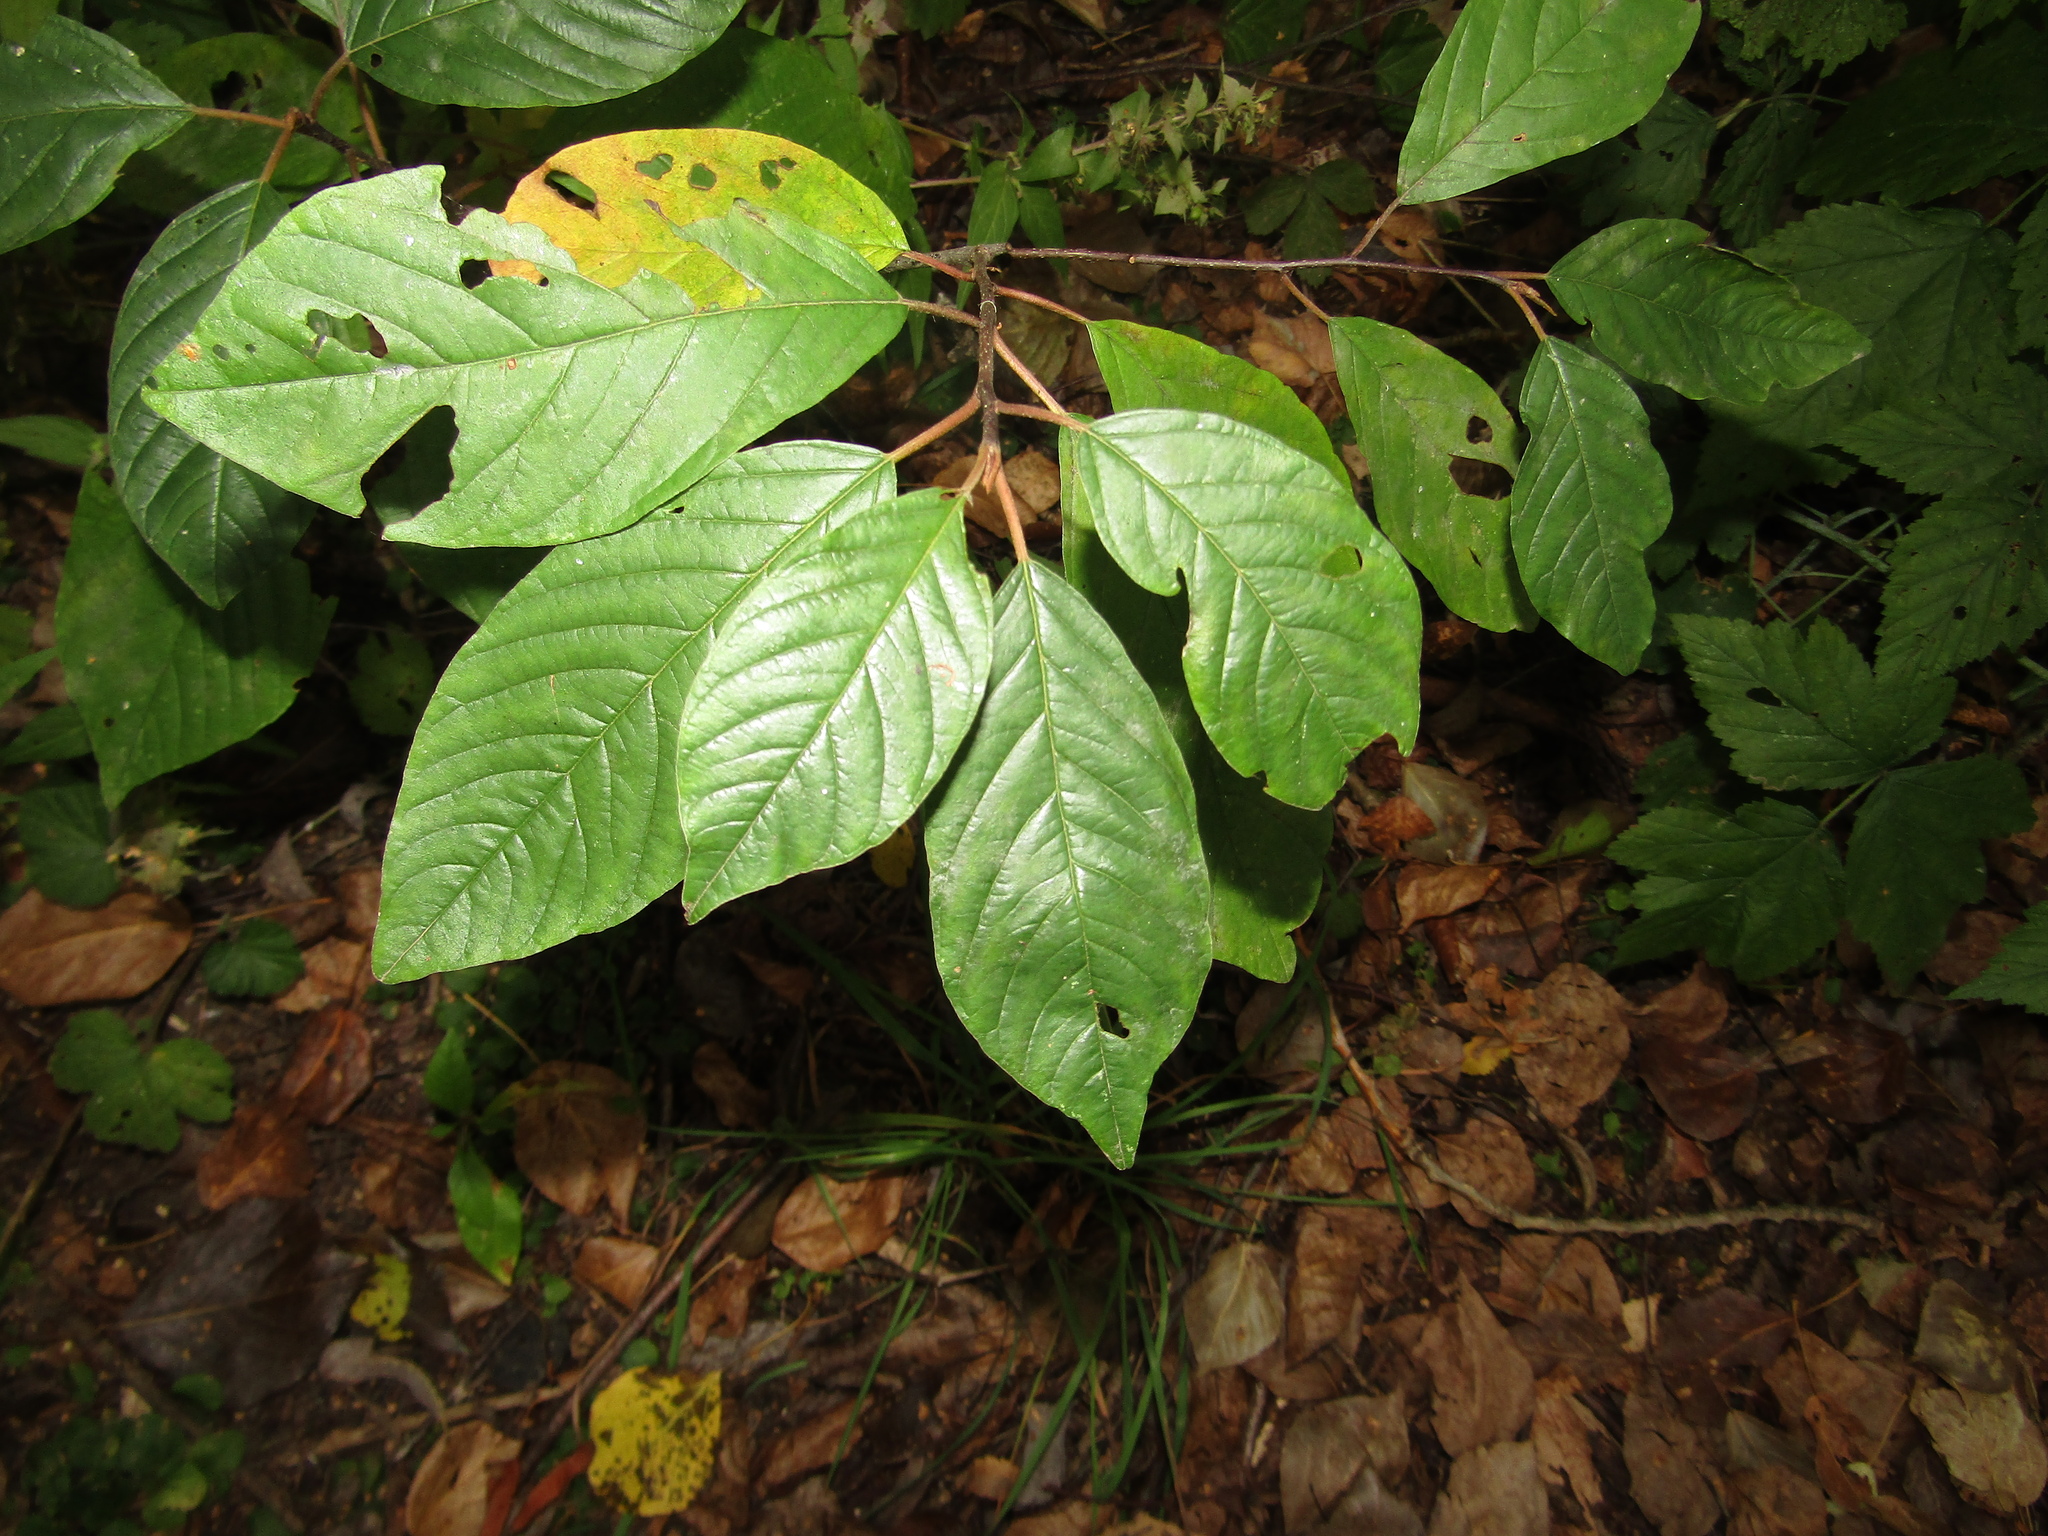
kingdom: Plantae
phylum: Tracheophyta
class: Magnoliopsida
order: Rosales
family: Rhamnaceae
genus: Frangula
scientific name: Frangula alnus
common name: Alder buckthorn
